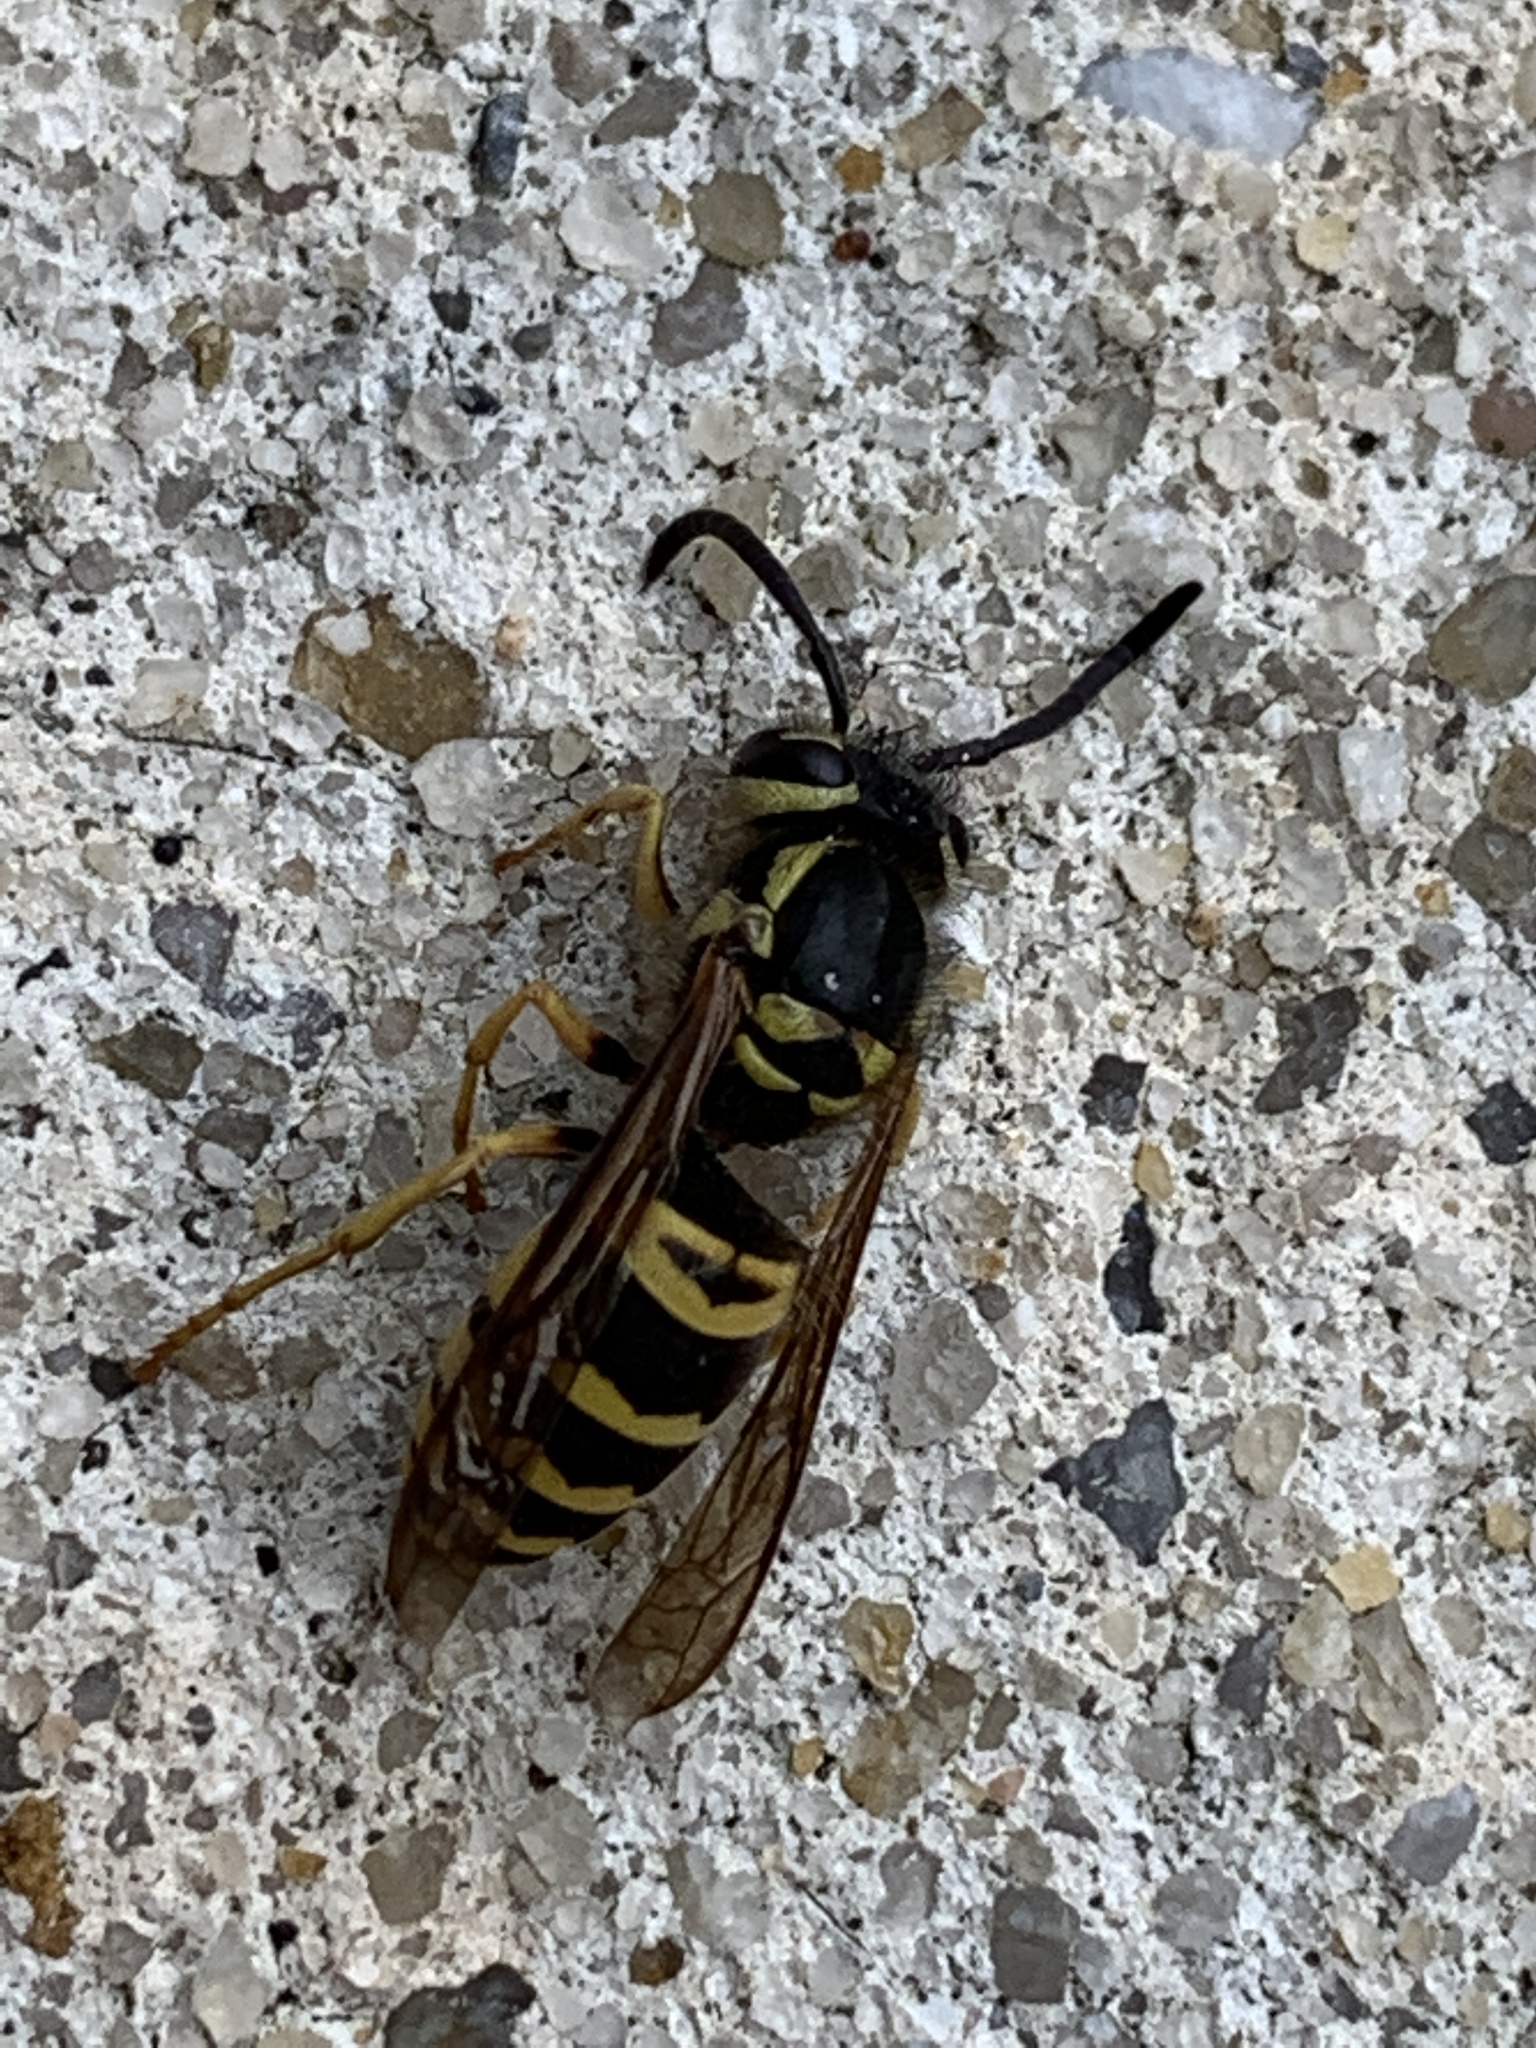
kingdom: Animalia
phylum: Arthropoda
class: Insecta
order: Hymenoptera
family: Vespidae
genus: Vespula
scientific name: Vespula maculifrons
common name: Eastern yellowjacket
